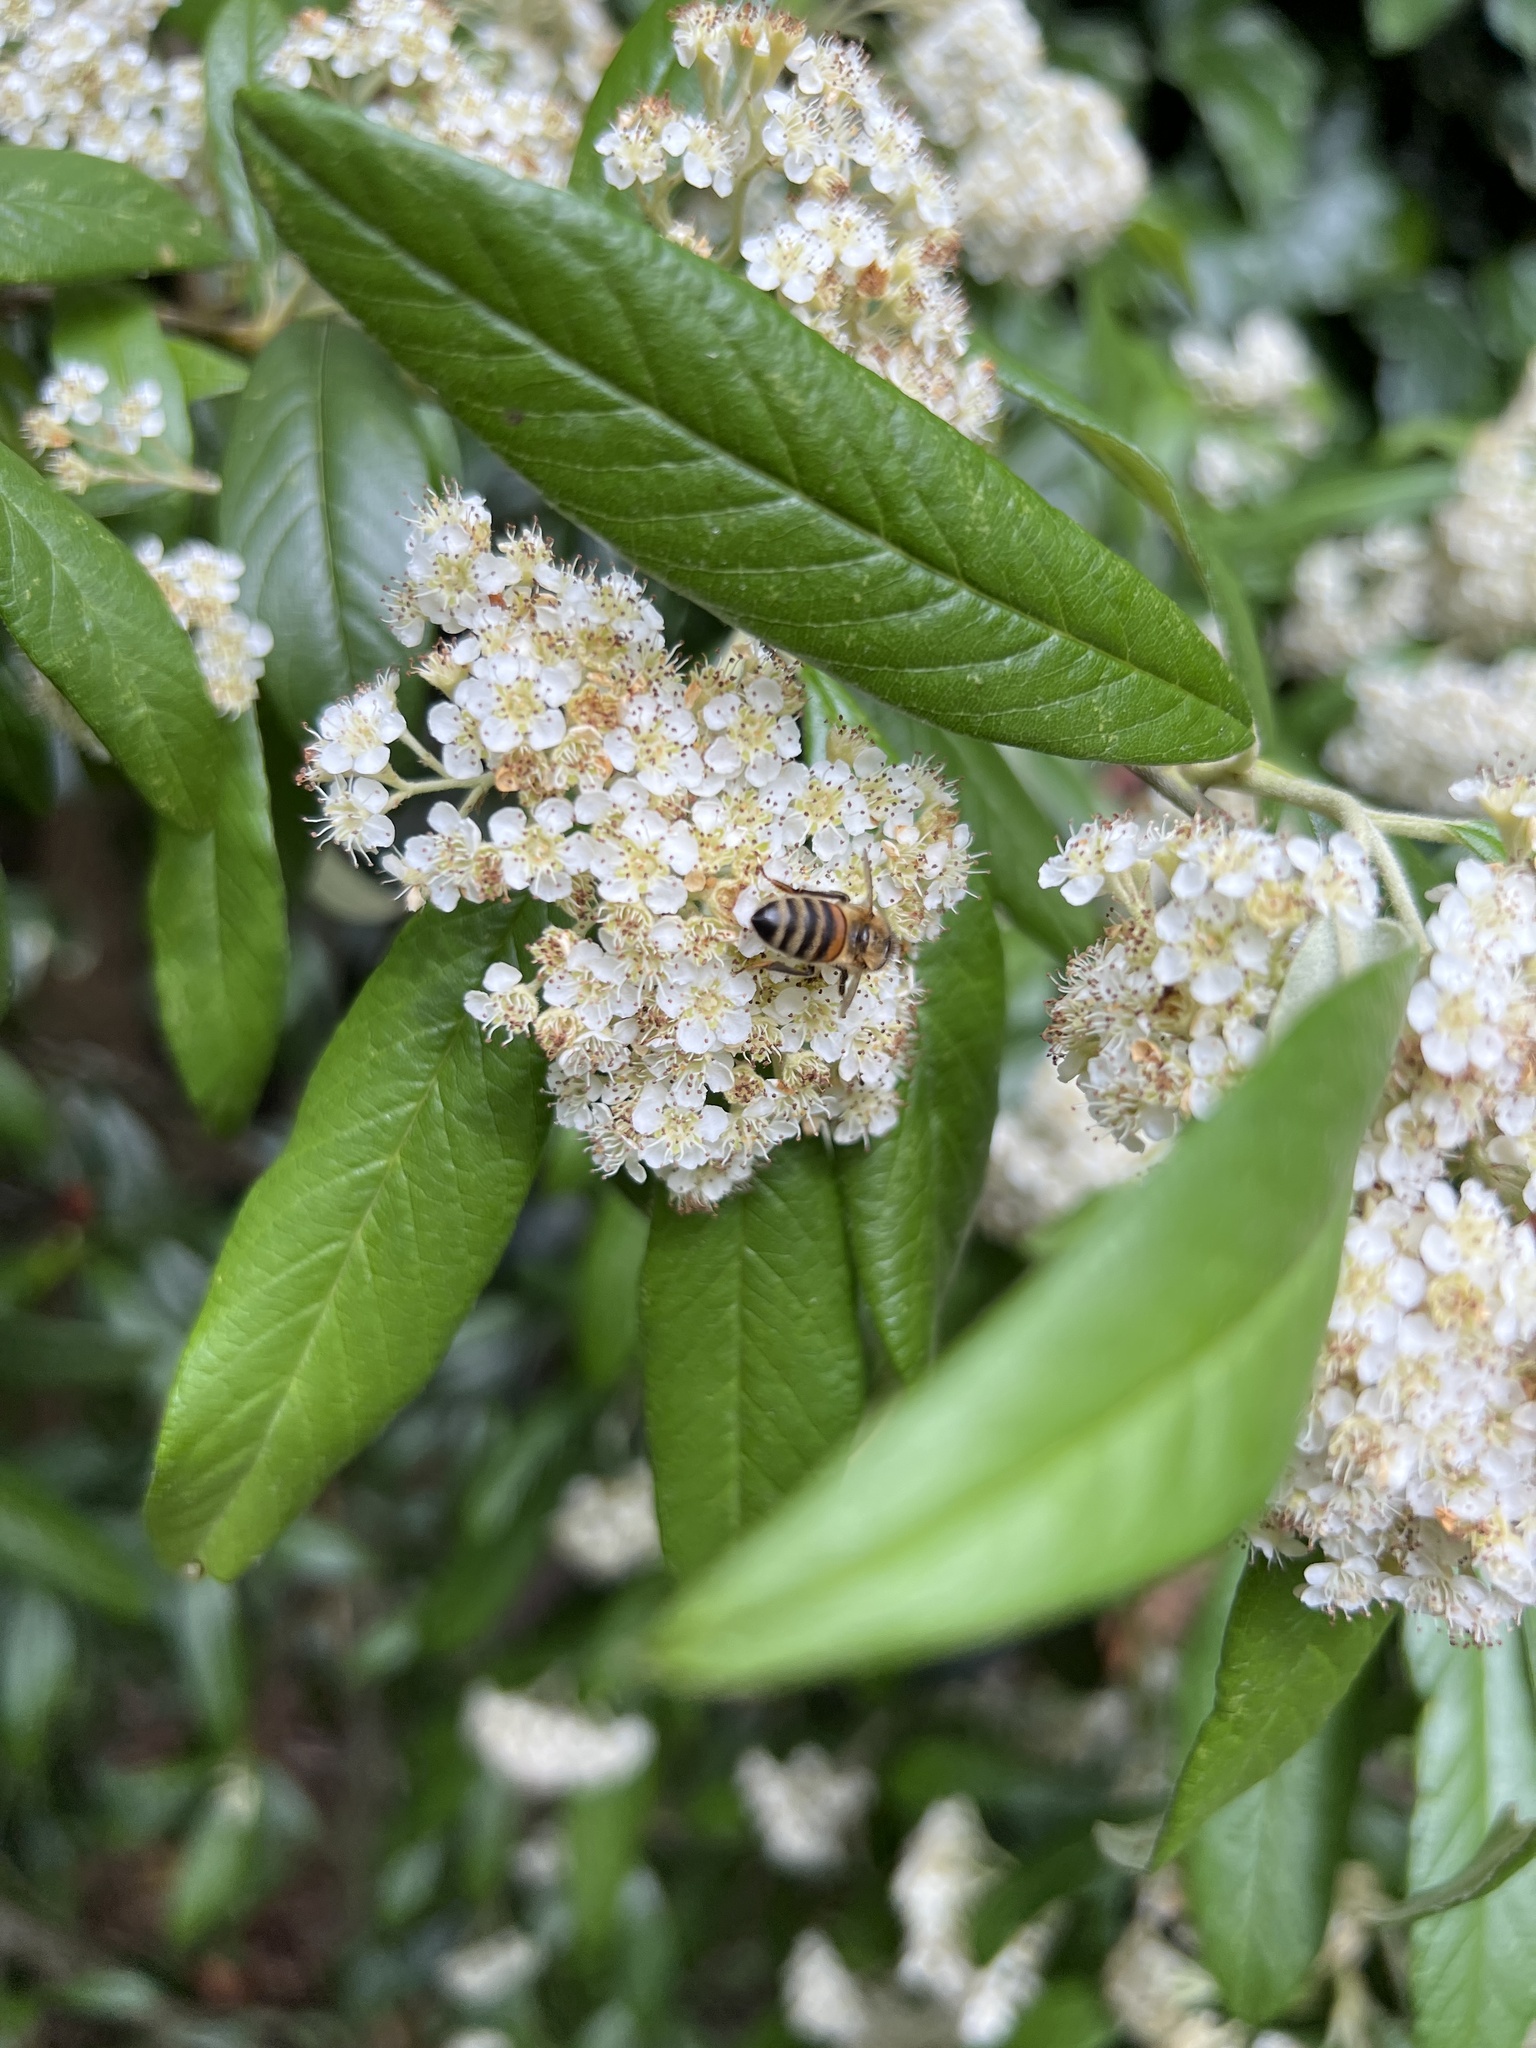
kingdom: Animalia
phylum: Arthropoda
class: Insecta
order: Hymenoptera
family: Apidae
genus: Apis
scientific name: Apis mellifera
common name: Honey bee
